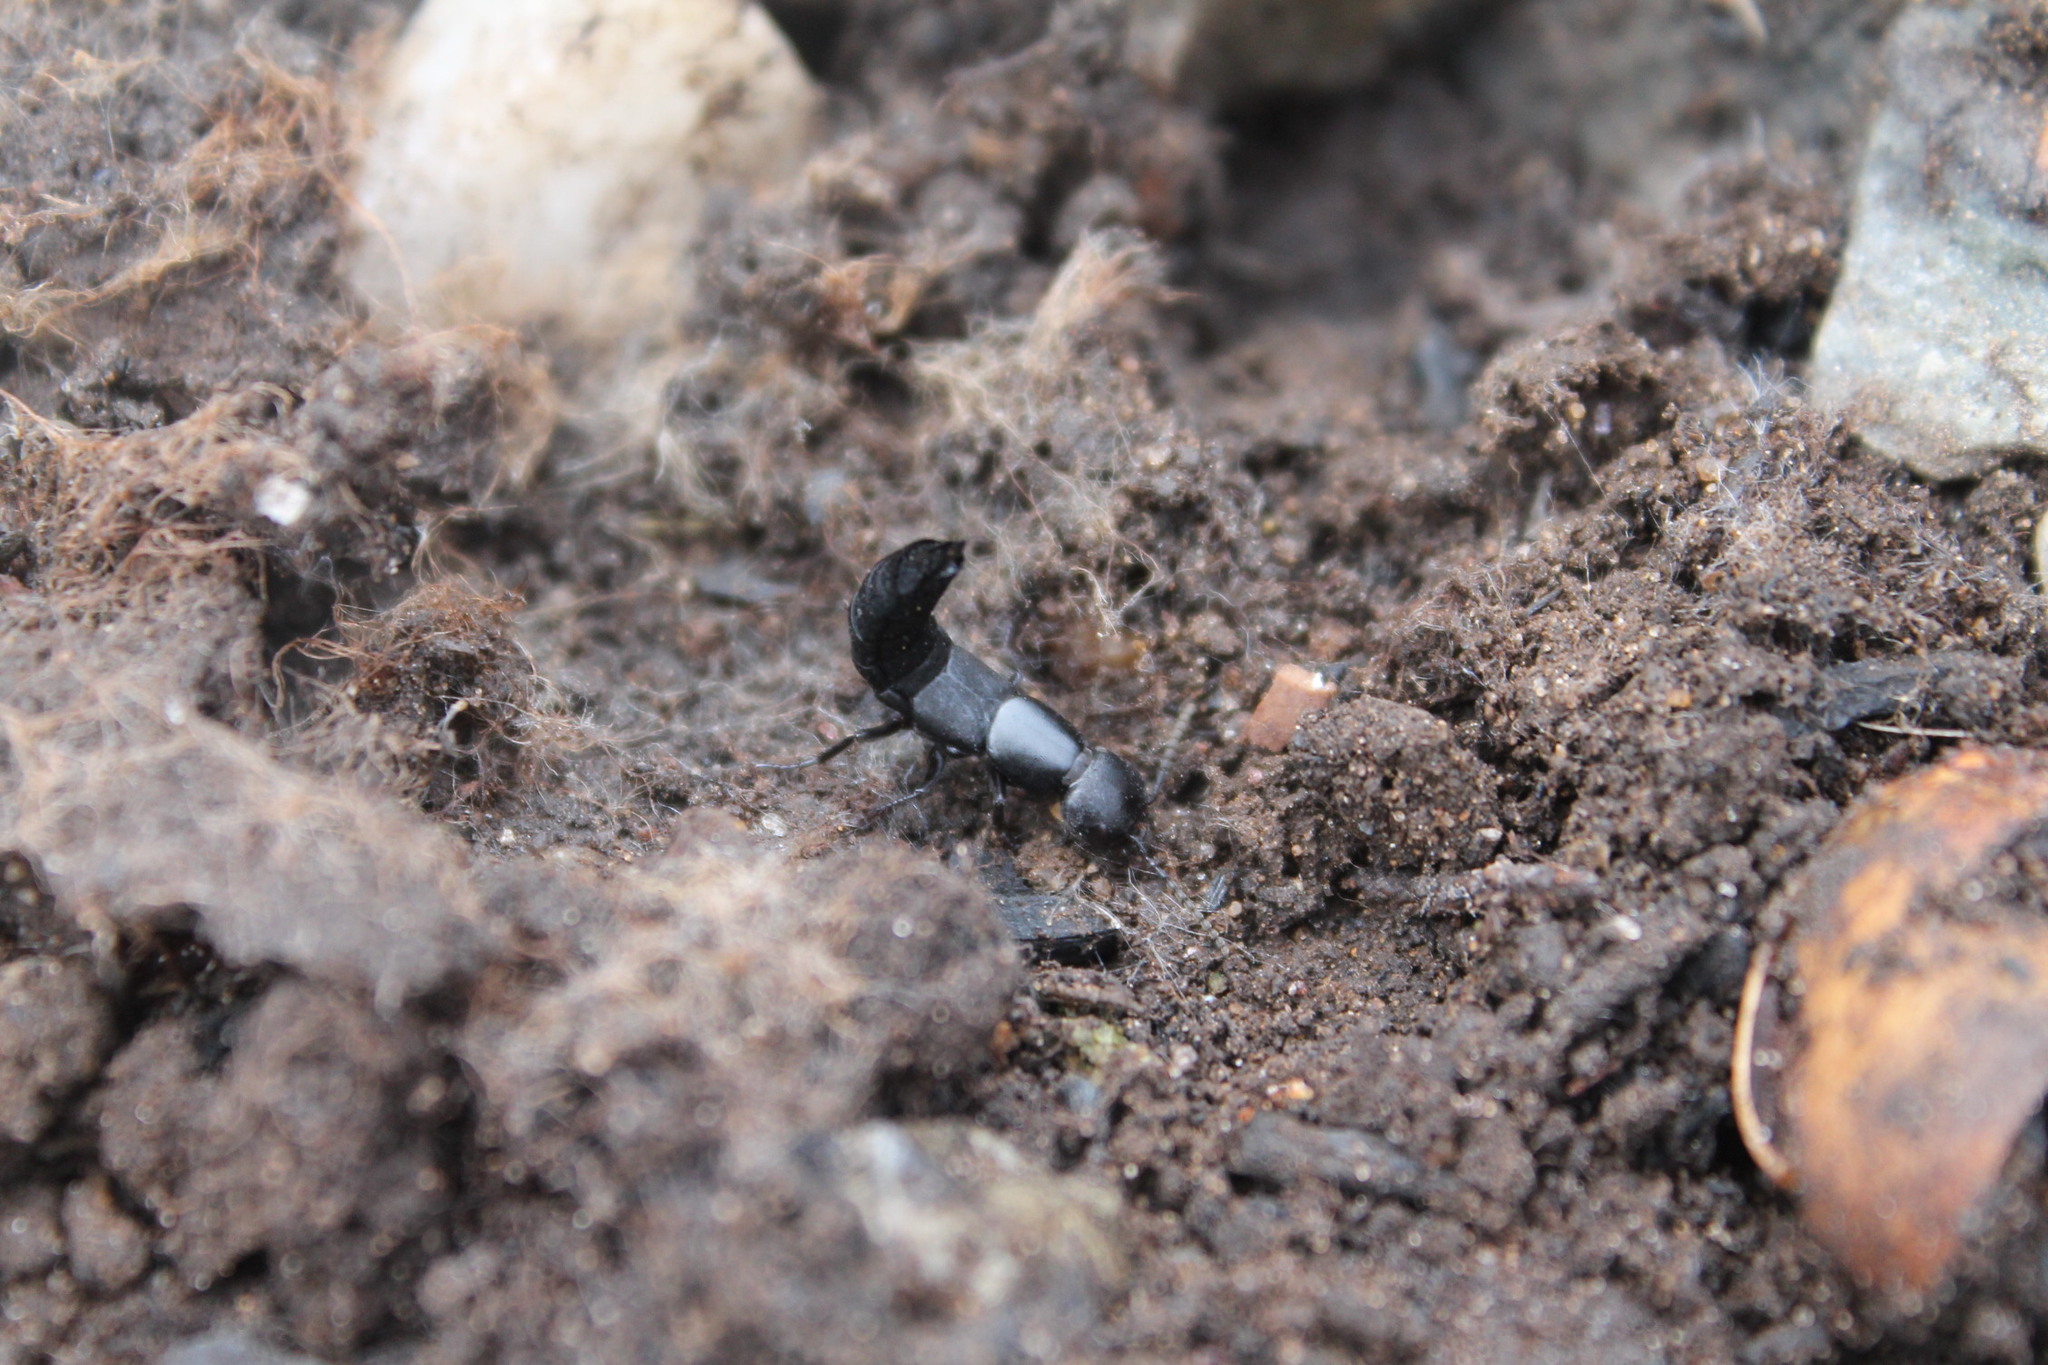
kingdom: Animalia
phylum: Arthropoda
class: Insecta
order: Coleoptera
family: Staphylinidae
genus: Ocypus
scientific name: Ocypus nitens
